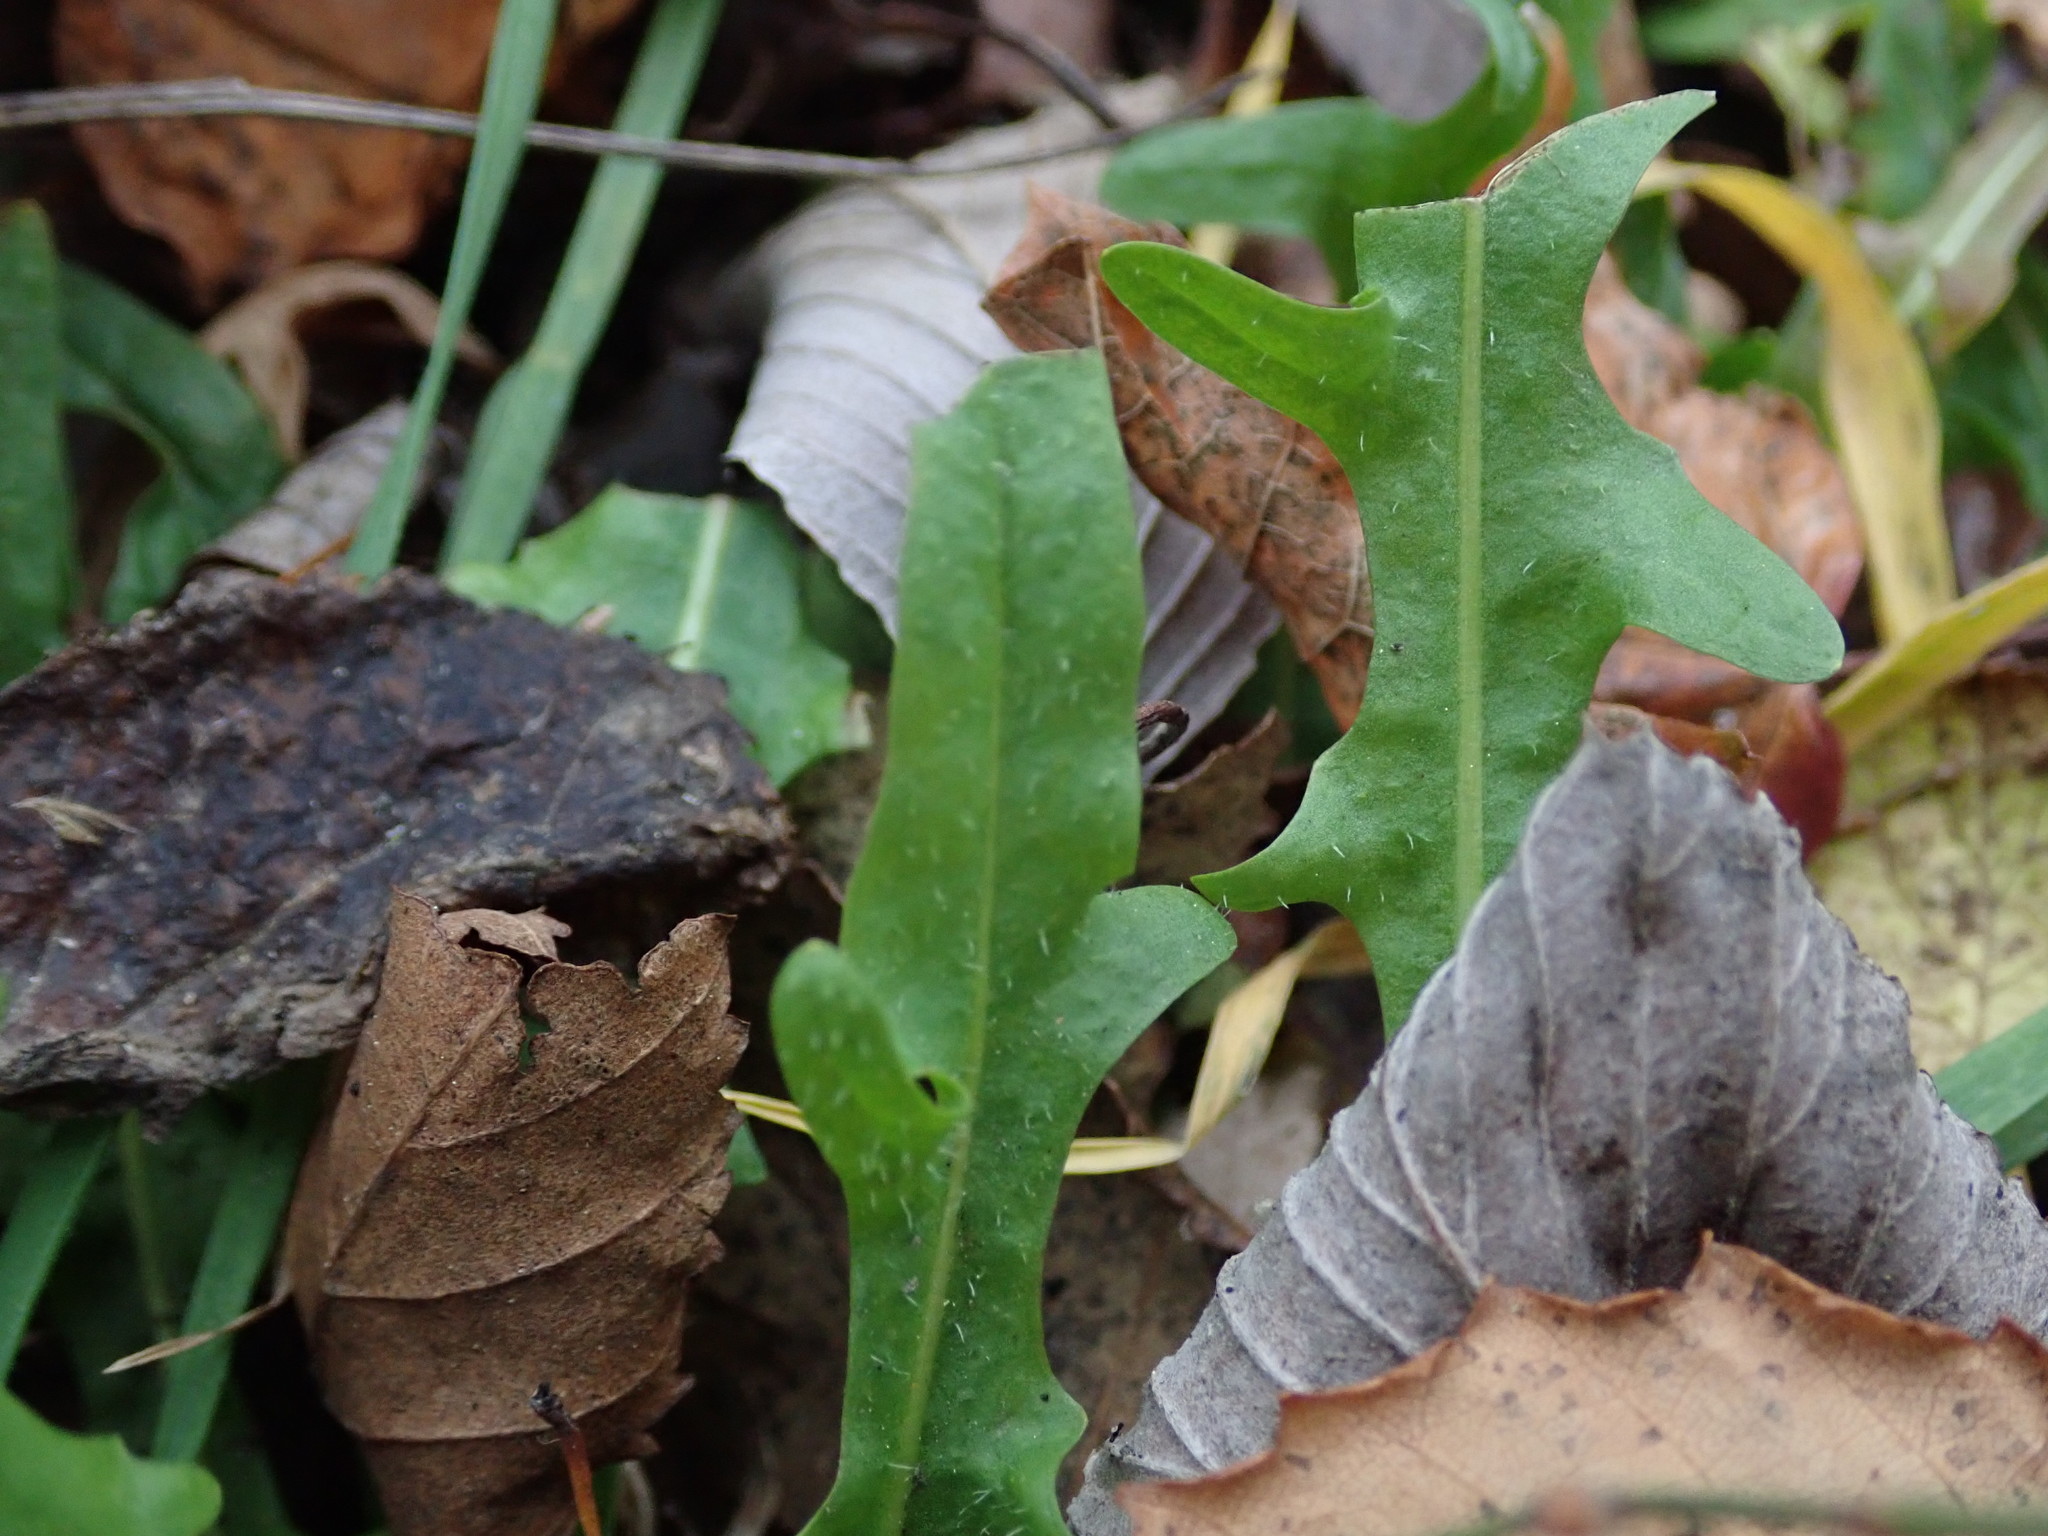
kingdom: Plantae
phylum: Tracheophyta
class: Magnoliopsida
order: Asterales
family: Asteraceae
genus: Scorzoneroides
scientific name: Scorzoneroides autumnalis
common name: Autumn hawkbit
